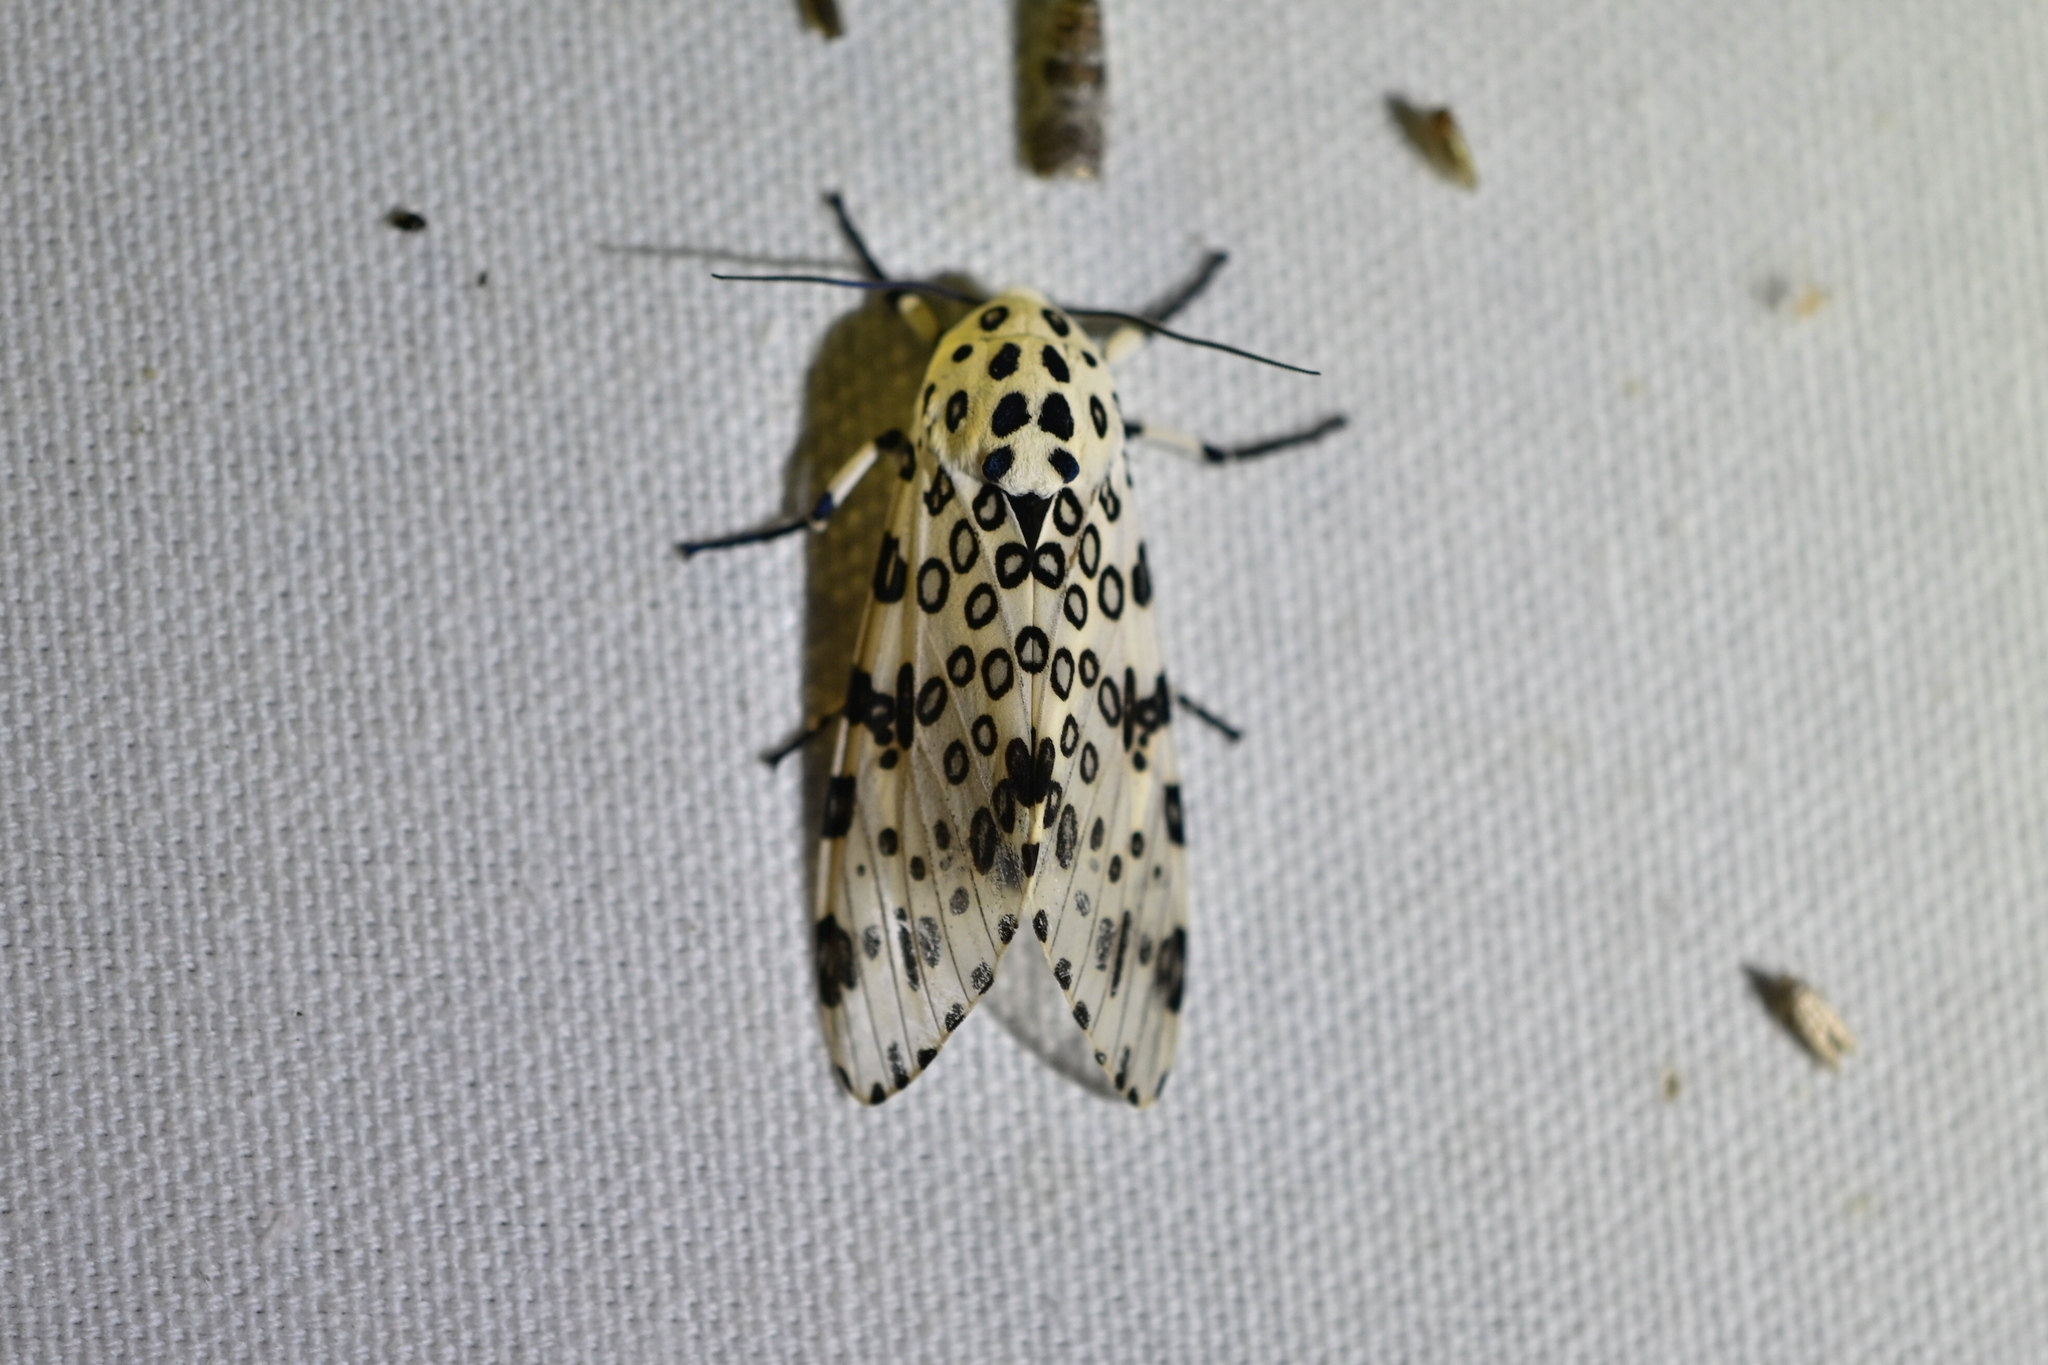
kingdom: Animalia
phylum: Arthropoda
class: Insecta
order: Lepidoptera
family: Erebidae
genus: Hypercompe
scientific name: Hypercompe scribonia
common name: Giant leopard moth
